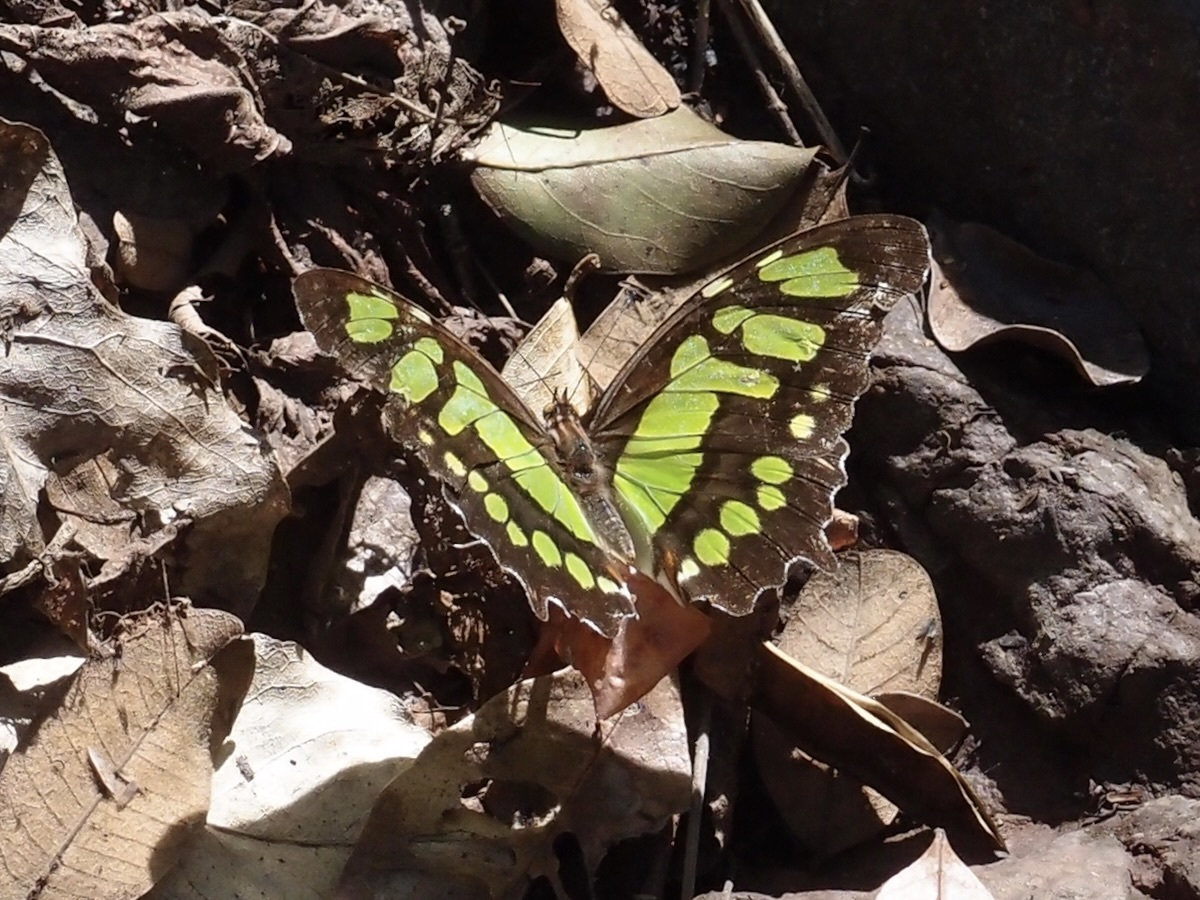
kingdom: Animalia
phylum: Arthropoda
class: Insecta
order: Lepidoptera
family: Nymphalidae
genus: Siproeta
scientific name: Siproeta stelenes
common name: Malachite
